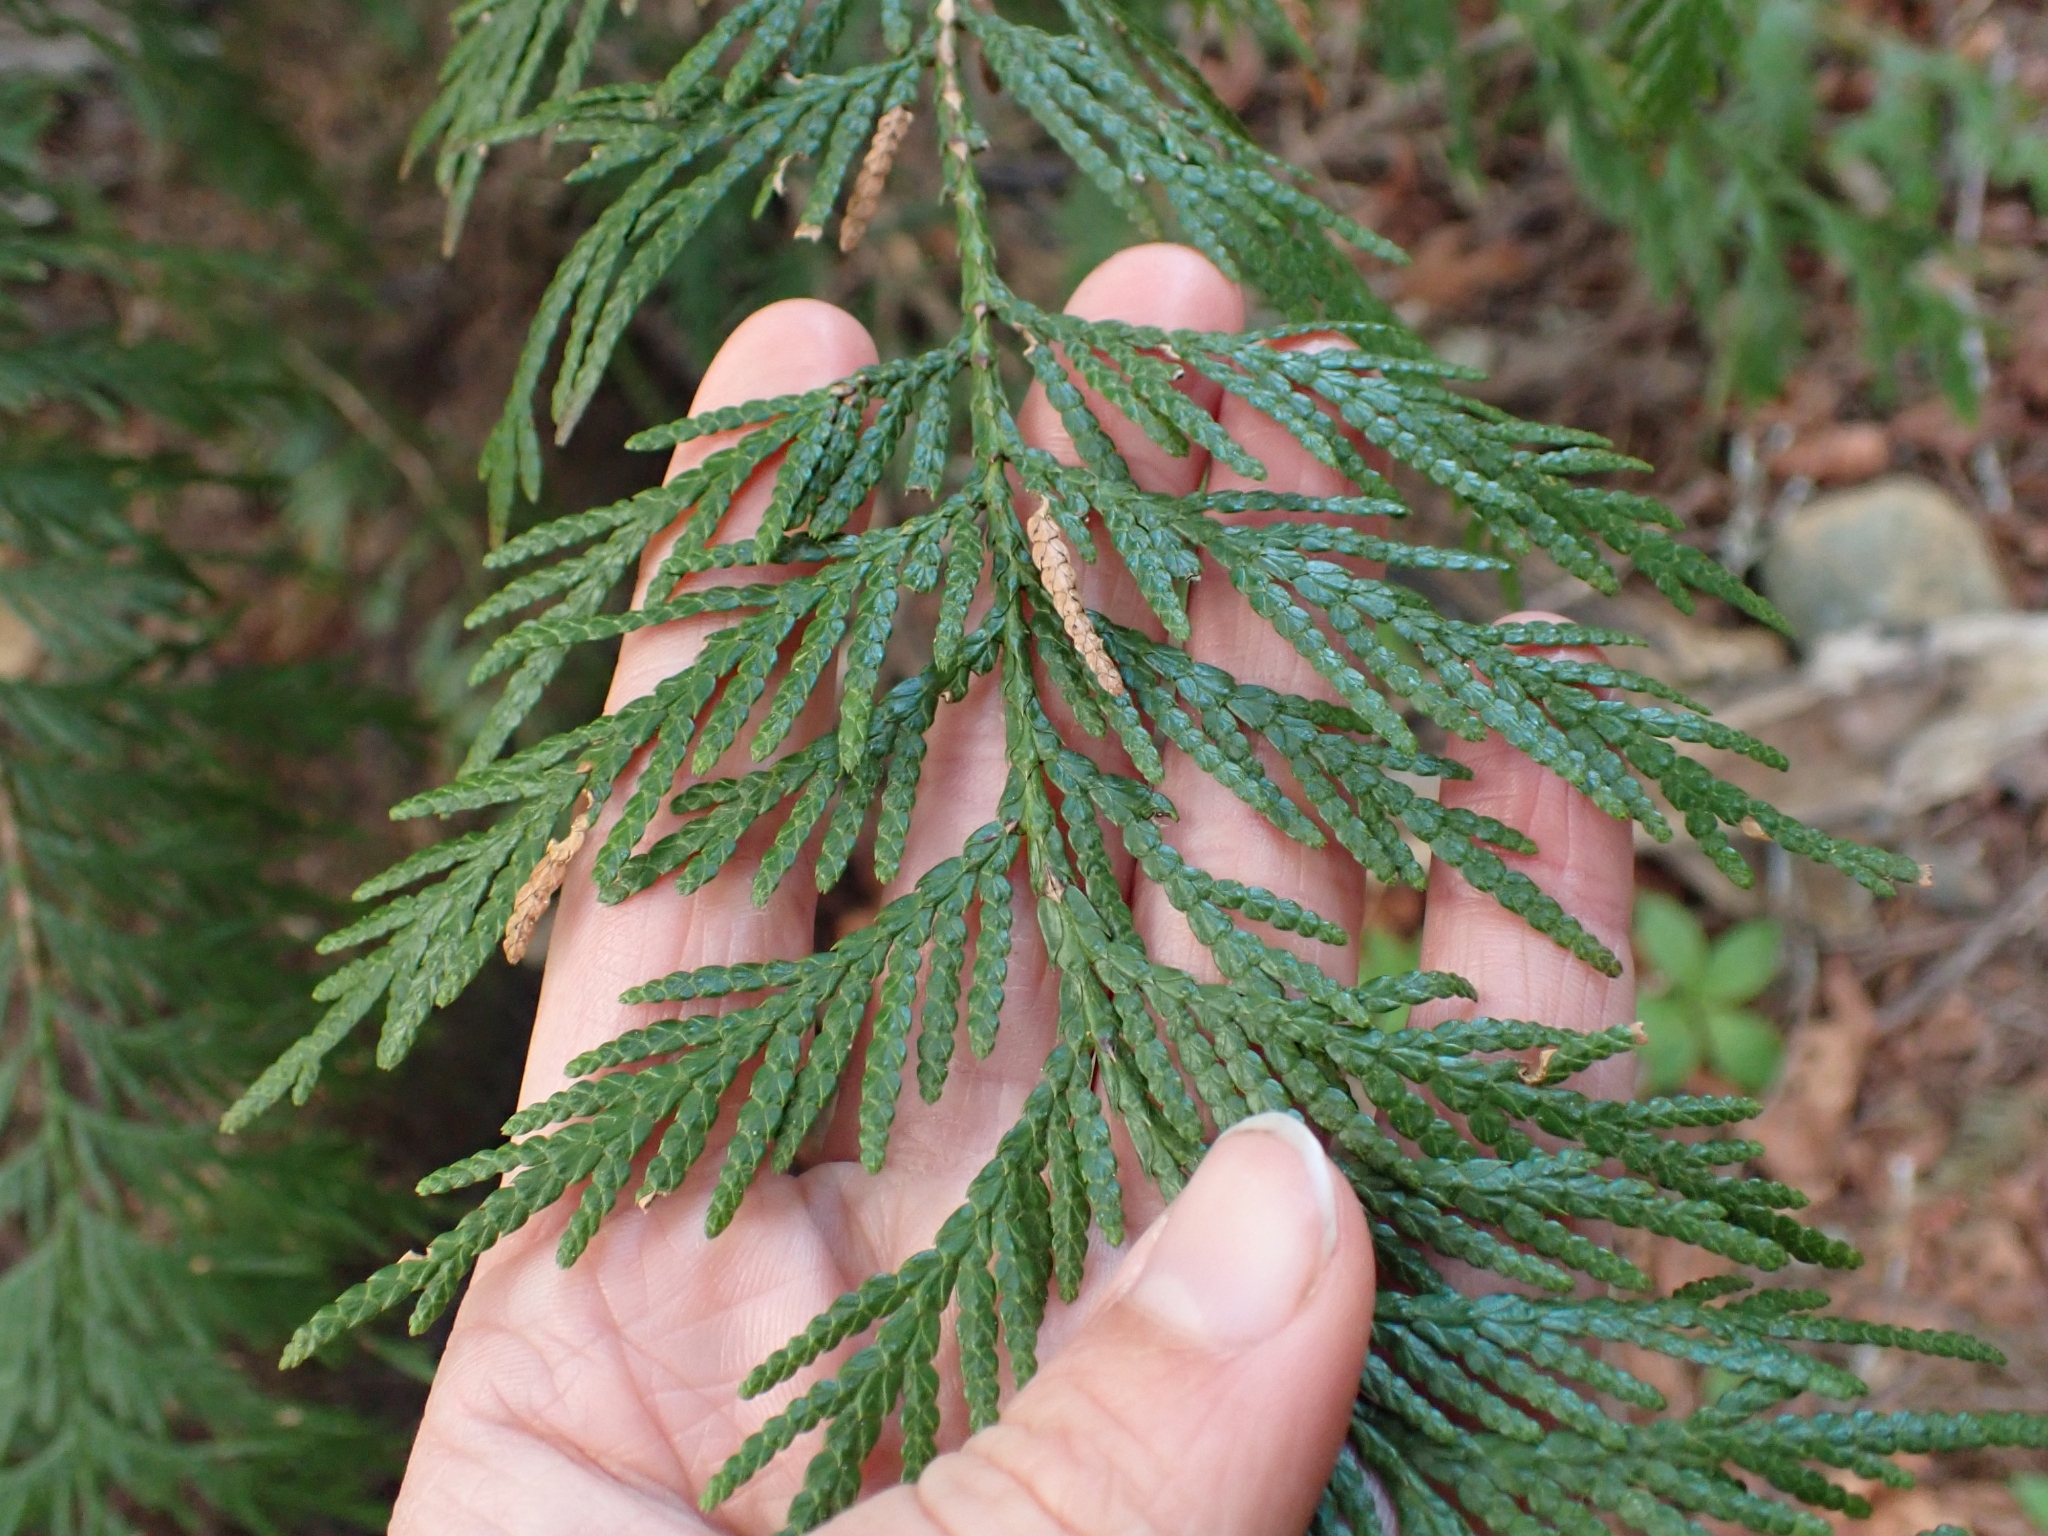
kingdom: Plantae
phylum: Tracheophyta
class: Pinopsida
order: Pinales
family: Cupressaceae
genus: Thuja
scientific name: Thuja plicata
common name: Western red-cedar
